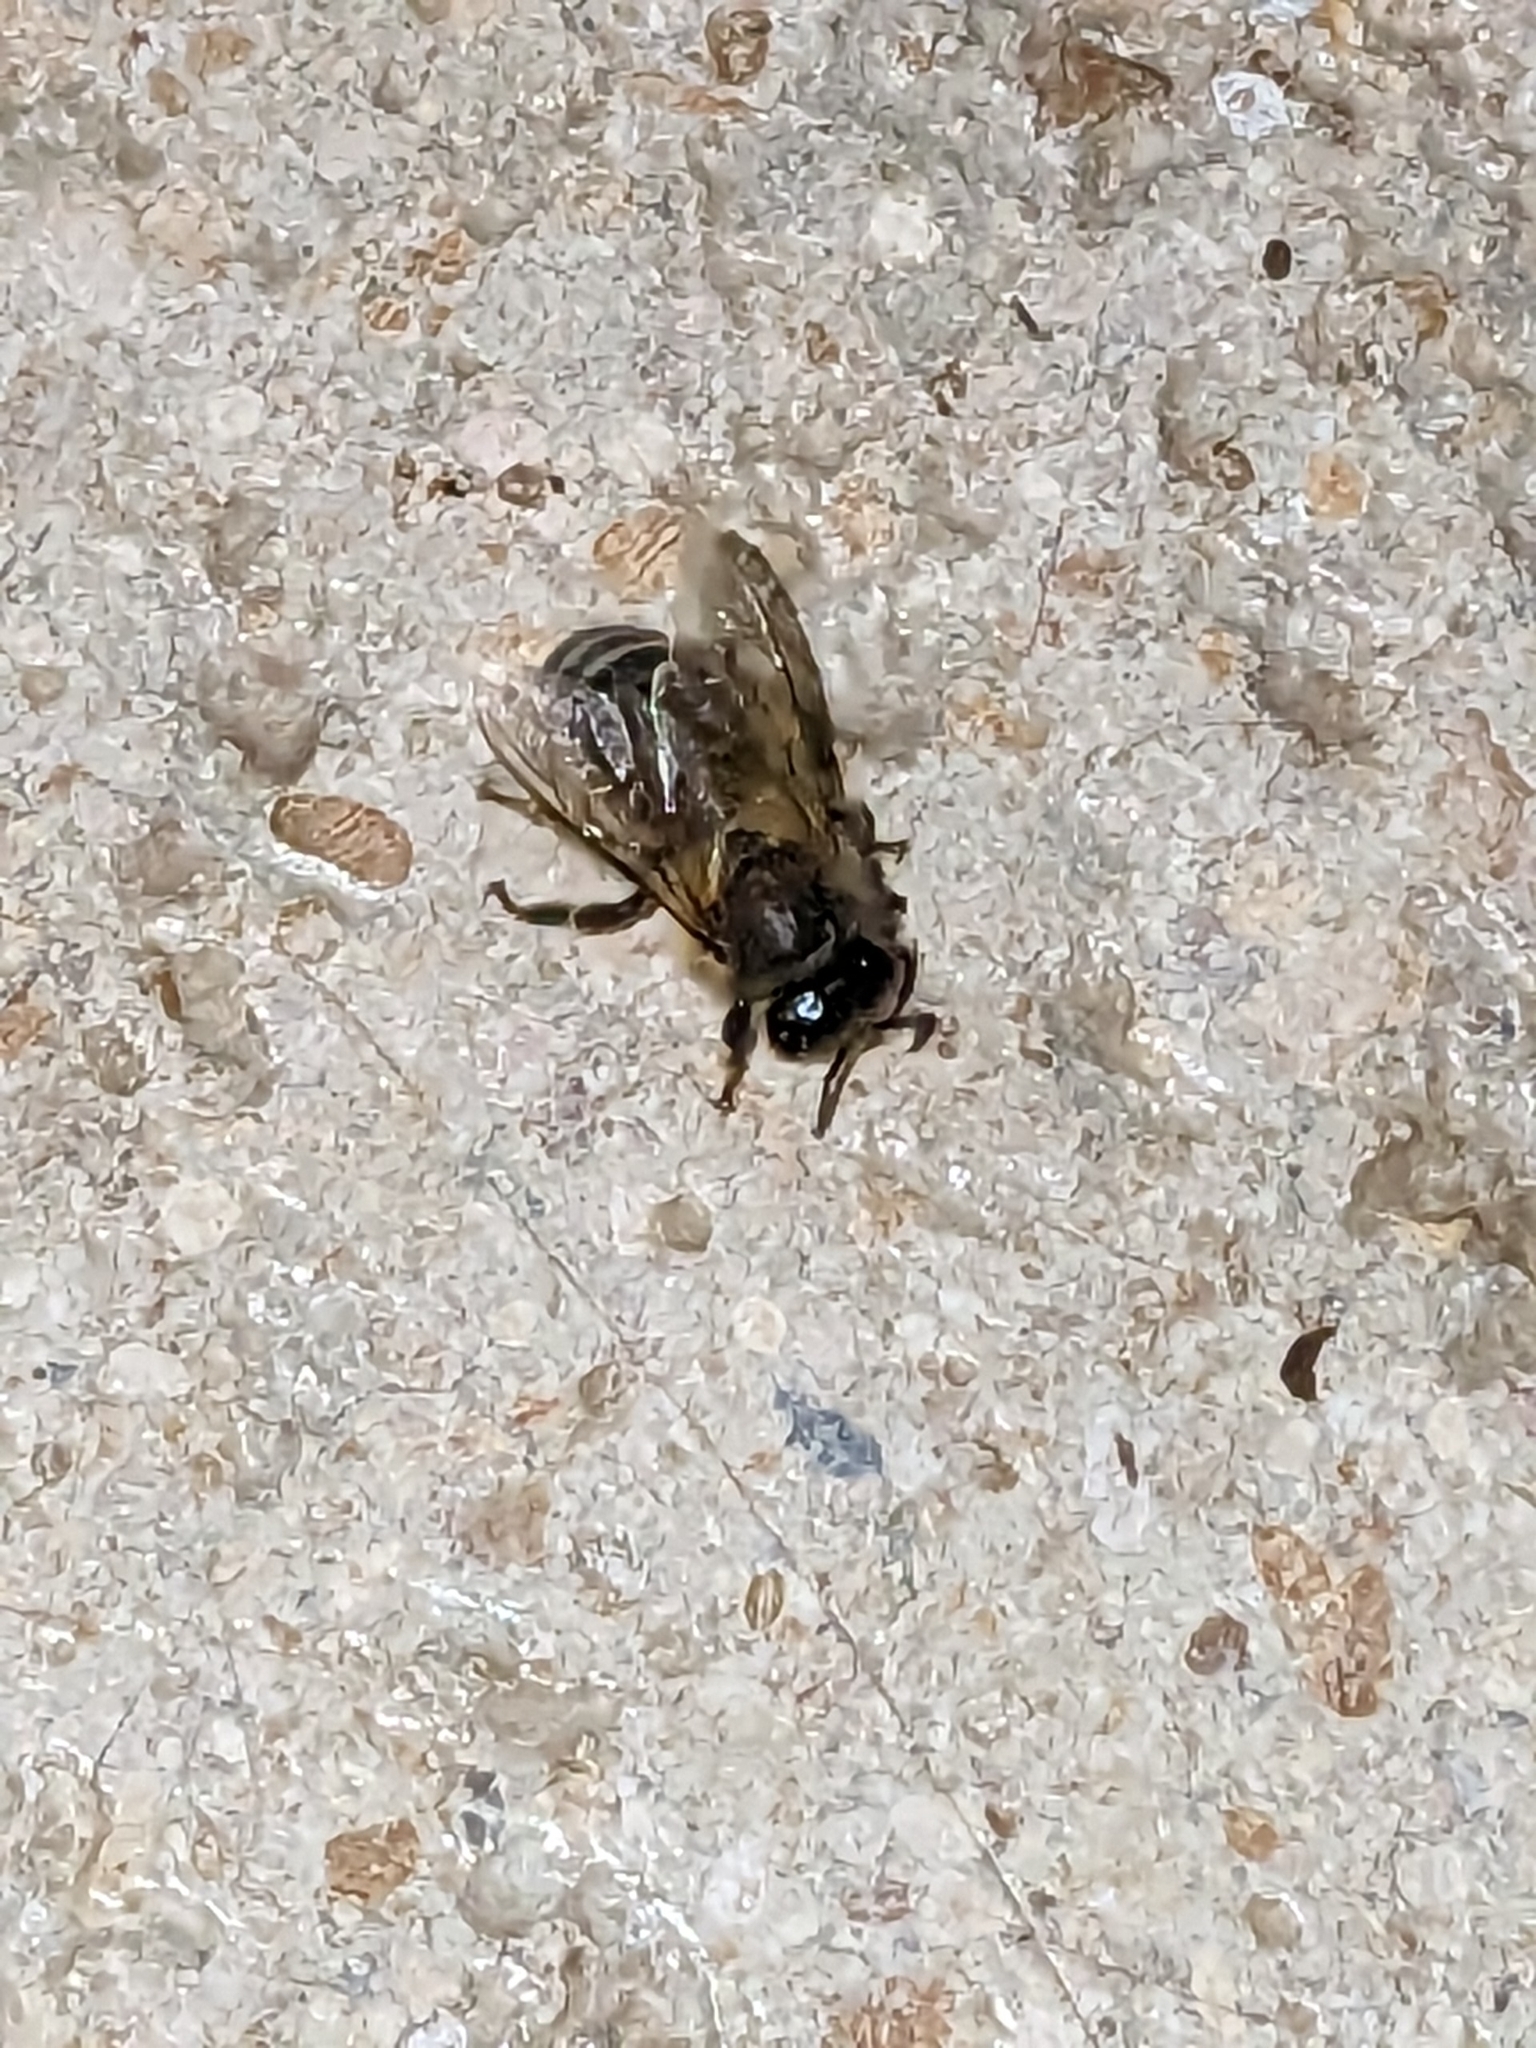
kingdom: Animalia
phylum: Arthropoda
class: Insecta
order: Hymenoptera
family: Apidae
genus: Apis
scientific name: Apis mellifera
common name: Honey bee
